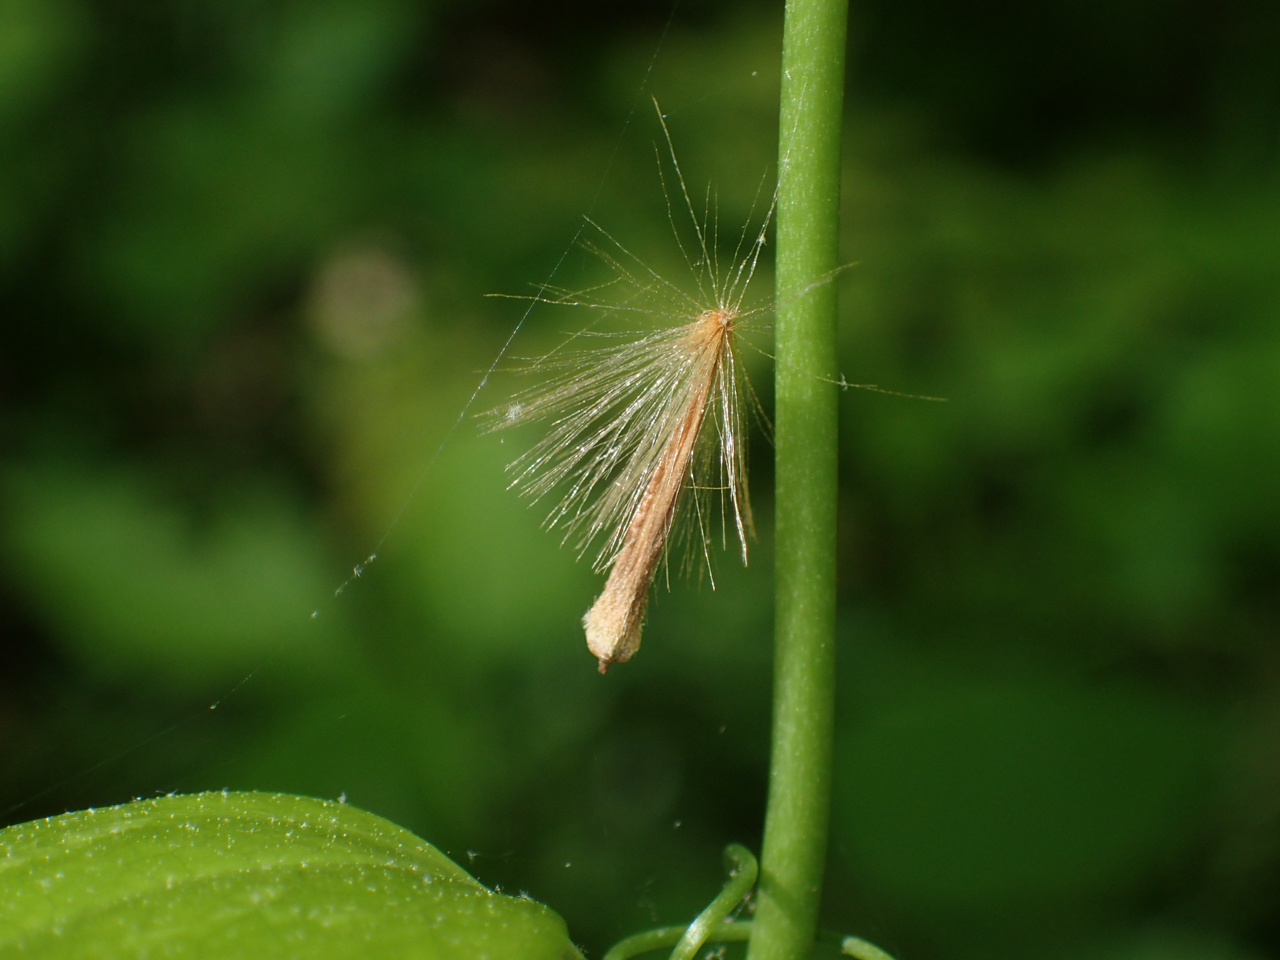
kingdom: Plantae
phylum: Tracheophyta
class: Magnoliopsida
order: Proteales
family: Platanaceae
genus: Platanus
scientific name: Platanus occidentalis
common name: American sycamore
